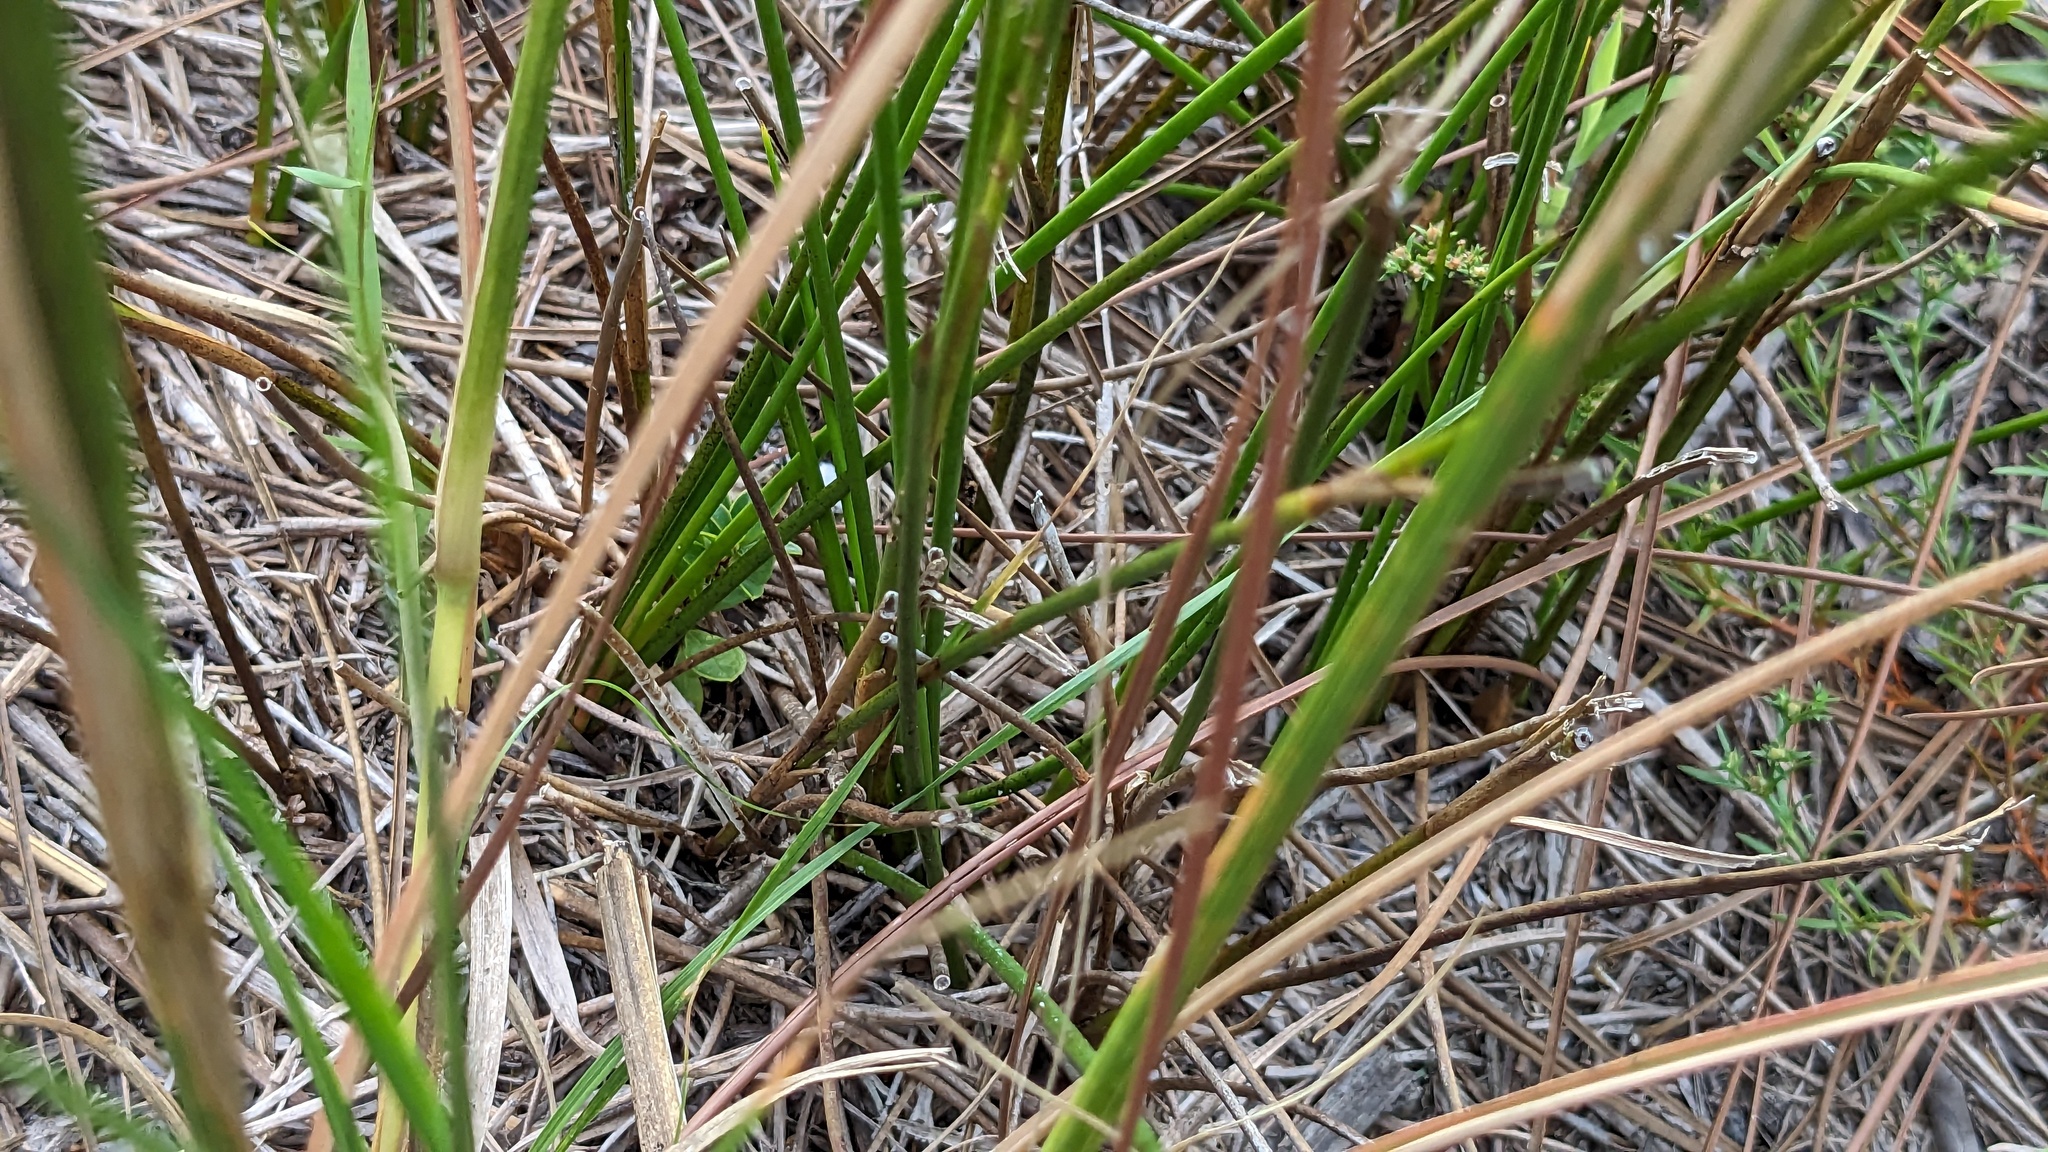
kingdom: Plantae
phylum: Tracheophyta
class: Liliopsida
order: Poales
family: Juncaceae
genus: Juncus
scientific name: Juncus scirpoides
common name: Needlepod rush
